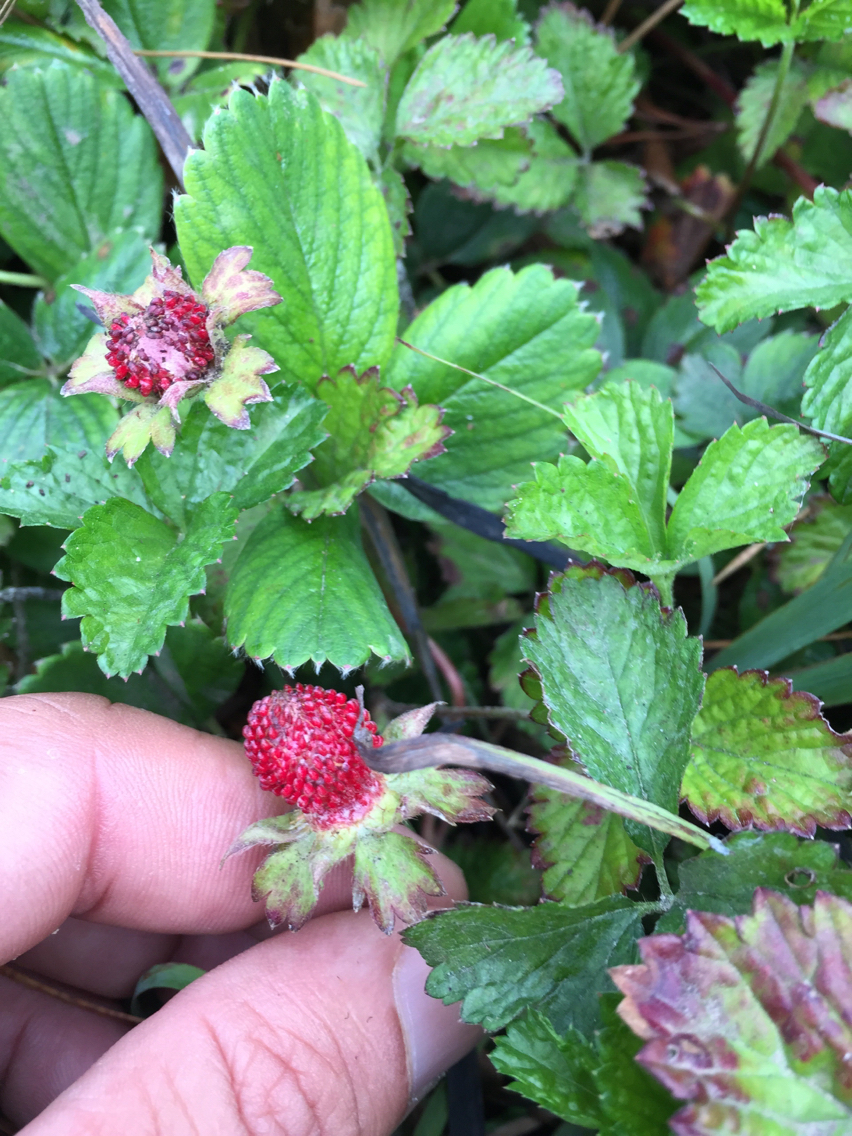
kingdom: Plantae
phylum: Tracheophyta
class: Magnoliopsida
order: Rosales
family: Rosaceae
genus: Potentilla
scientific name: Potentilla indica
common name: Yellow-flowered strawberry
